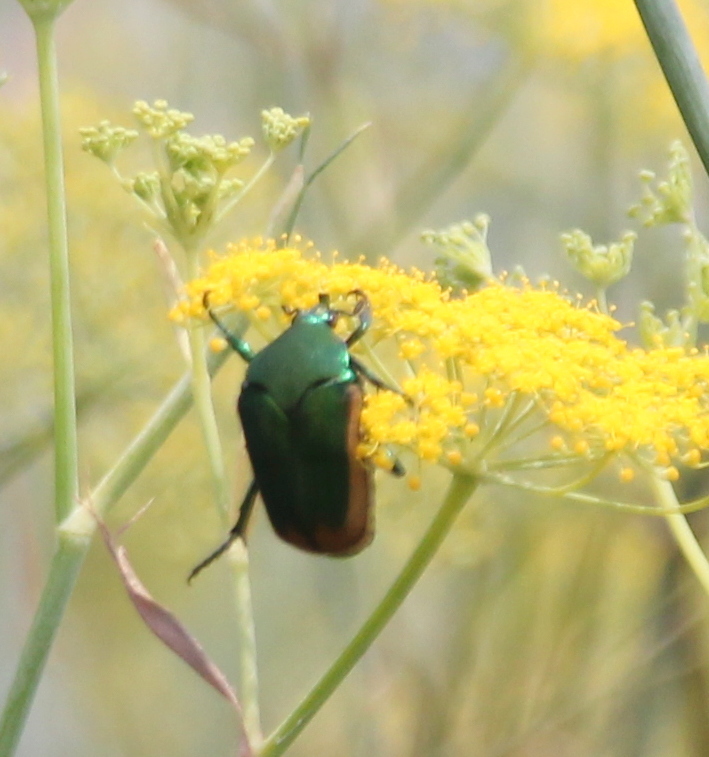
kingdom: Animalia
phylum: Arthropoda
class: Insecta
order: Coleoptera
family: Scarabaeidae
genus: Cotinis
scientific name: Cotinis mutabilis
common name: Figeater beetle
